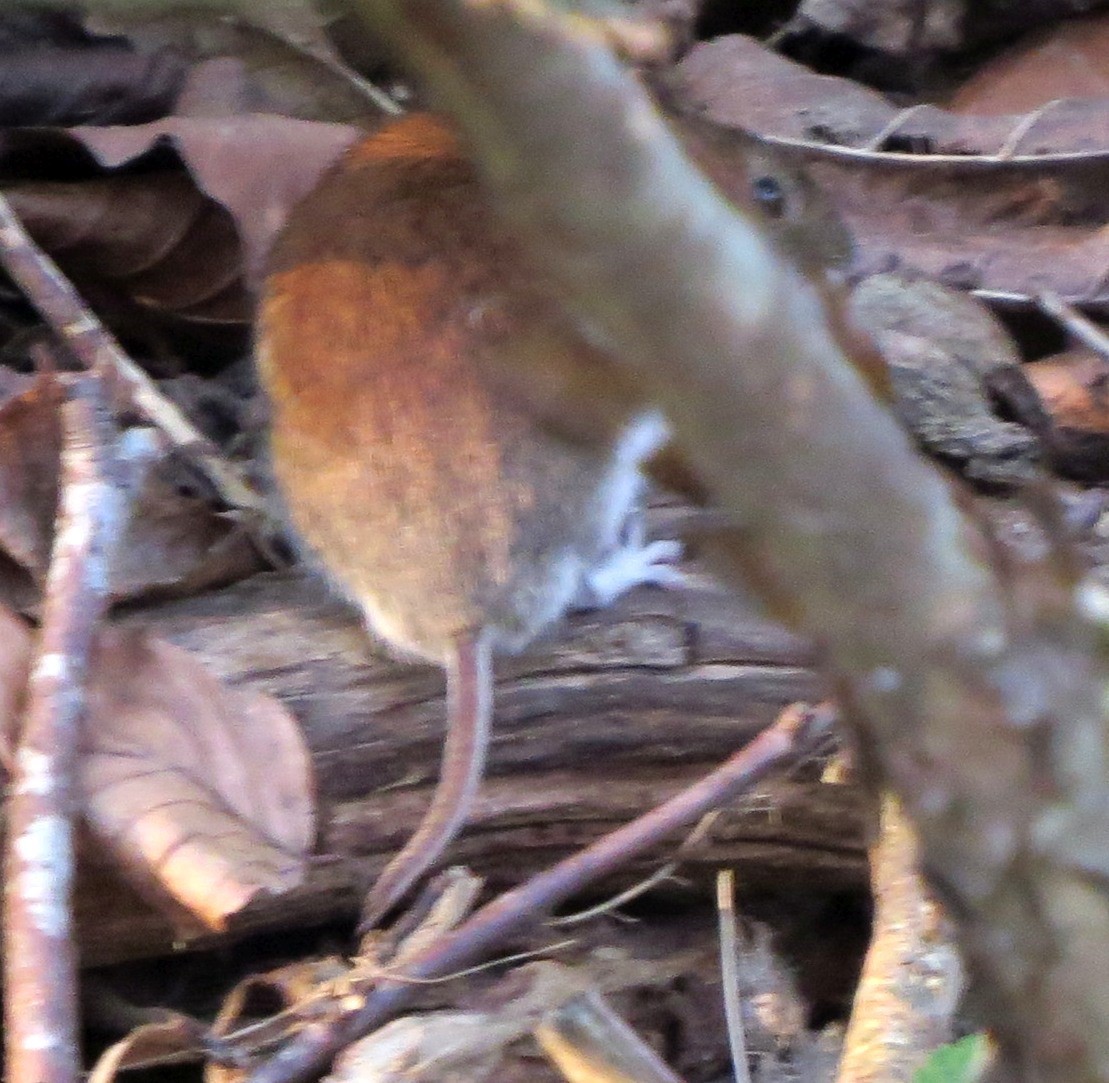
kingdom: Animalia
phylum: Chordata
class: Mammalia
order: Rodentia
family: Cricetidae
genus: Myodes
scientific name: Myodes glareolus
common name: Bank vole
